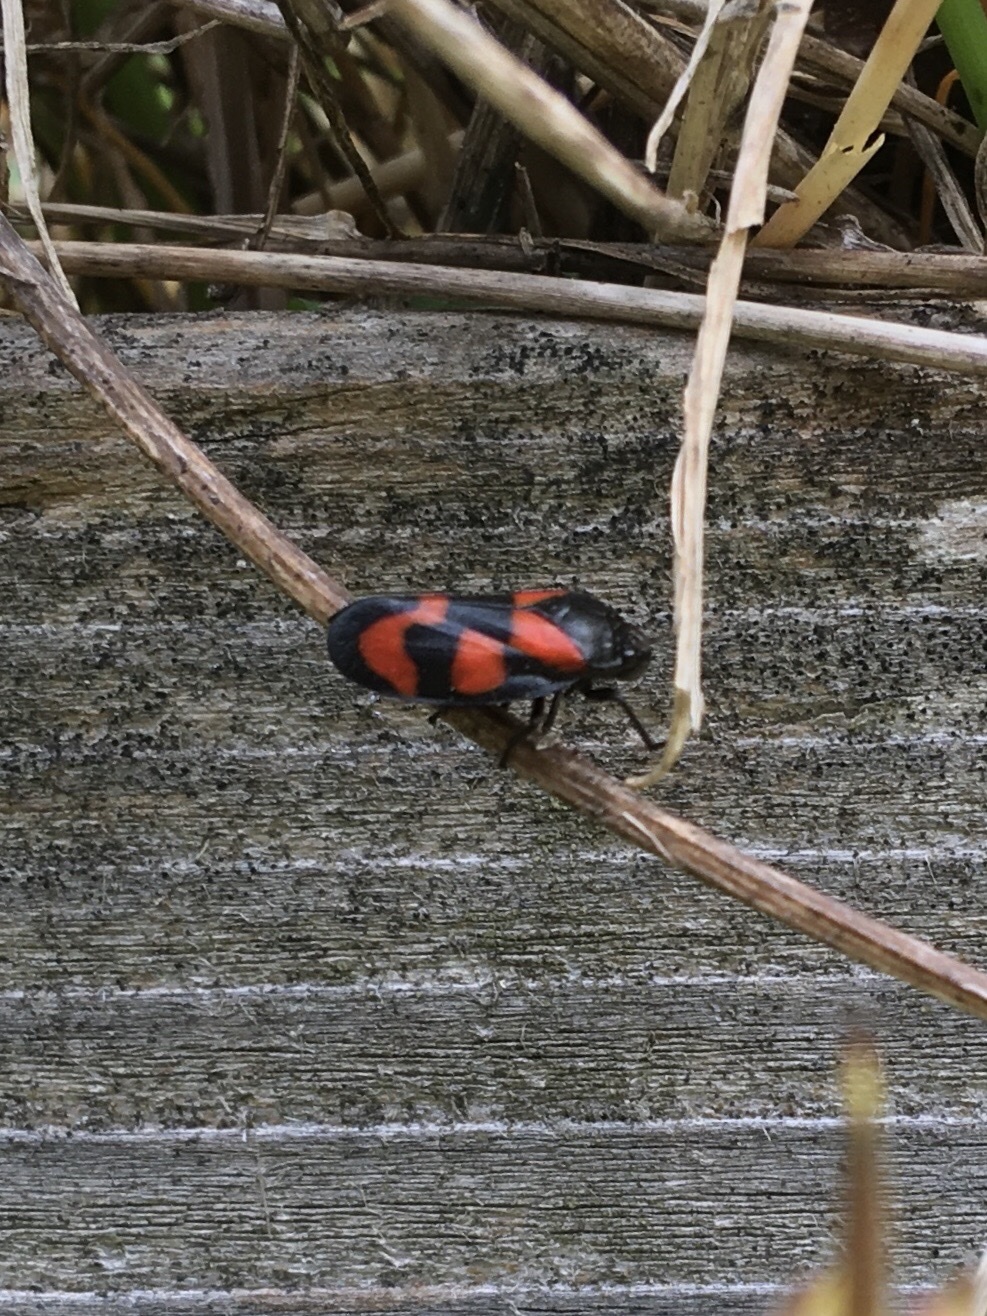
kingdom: Animalia
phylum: Arthropoda
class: Insecta
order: Hemiptera
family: Cercopidae
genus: Cercopis
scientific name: Cercopis vulnerata
